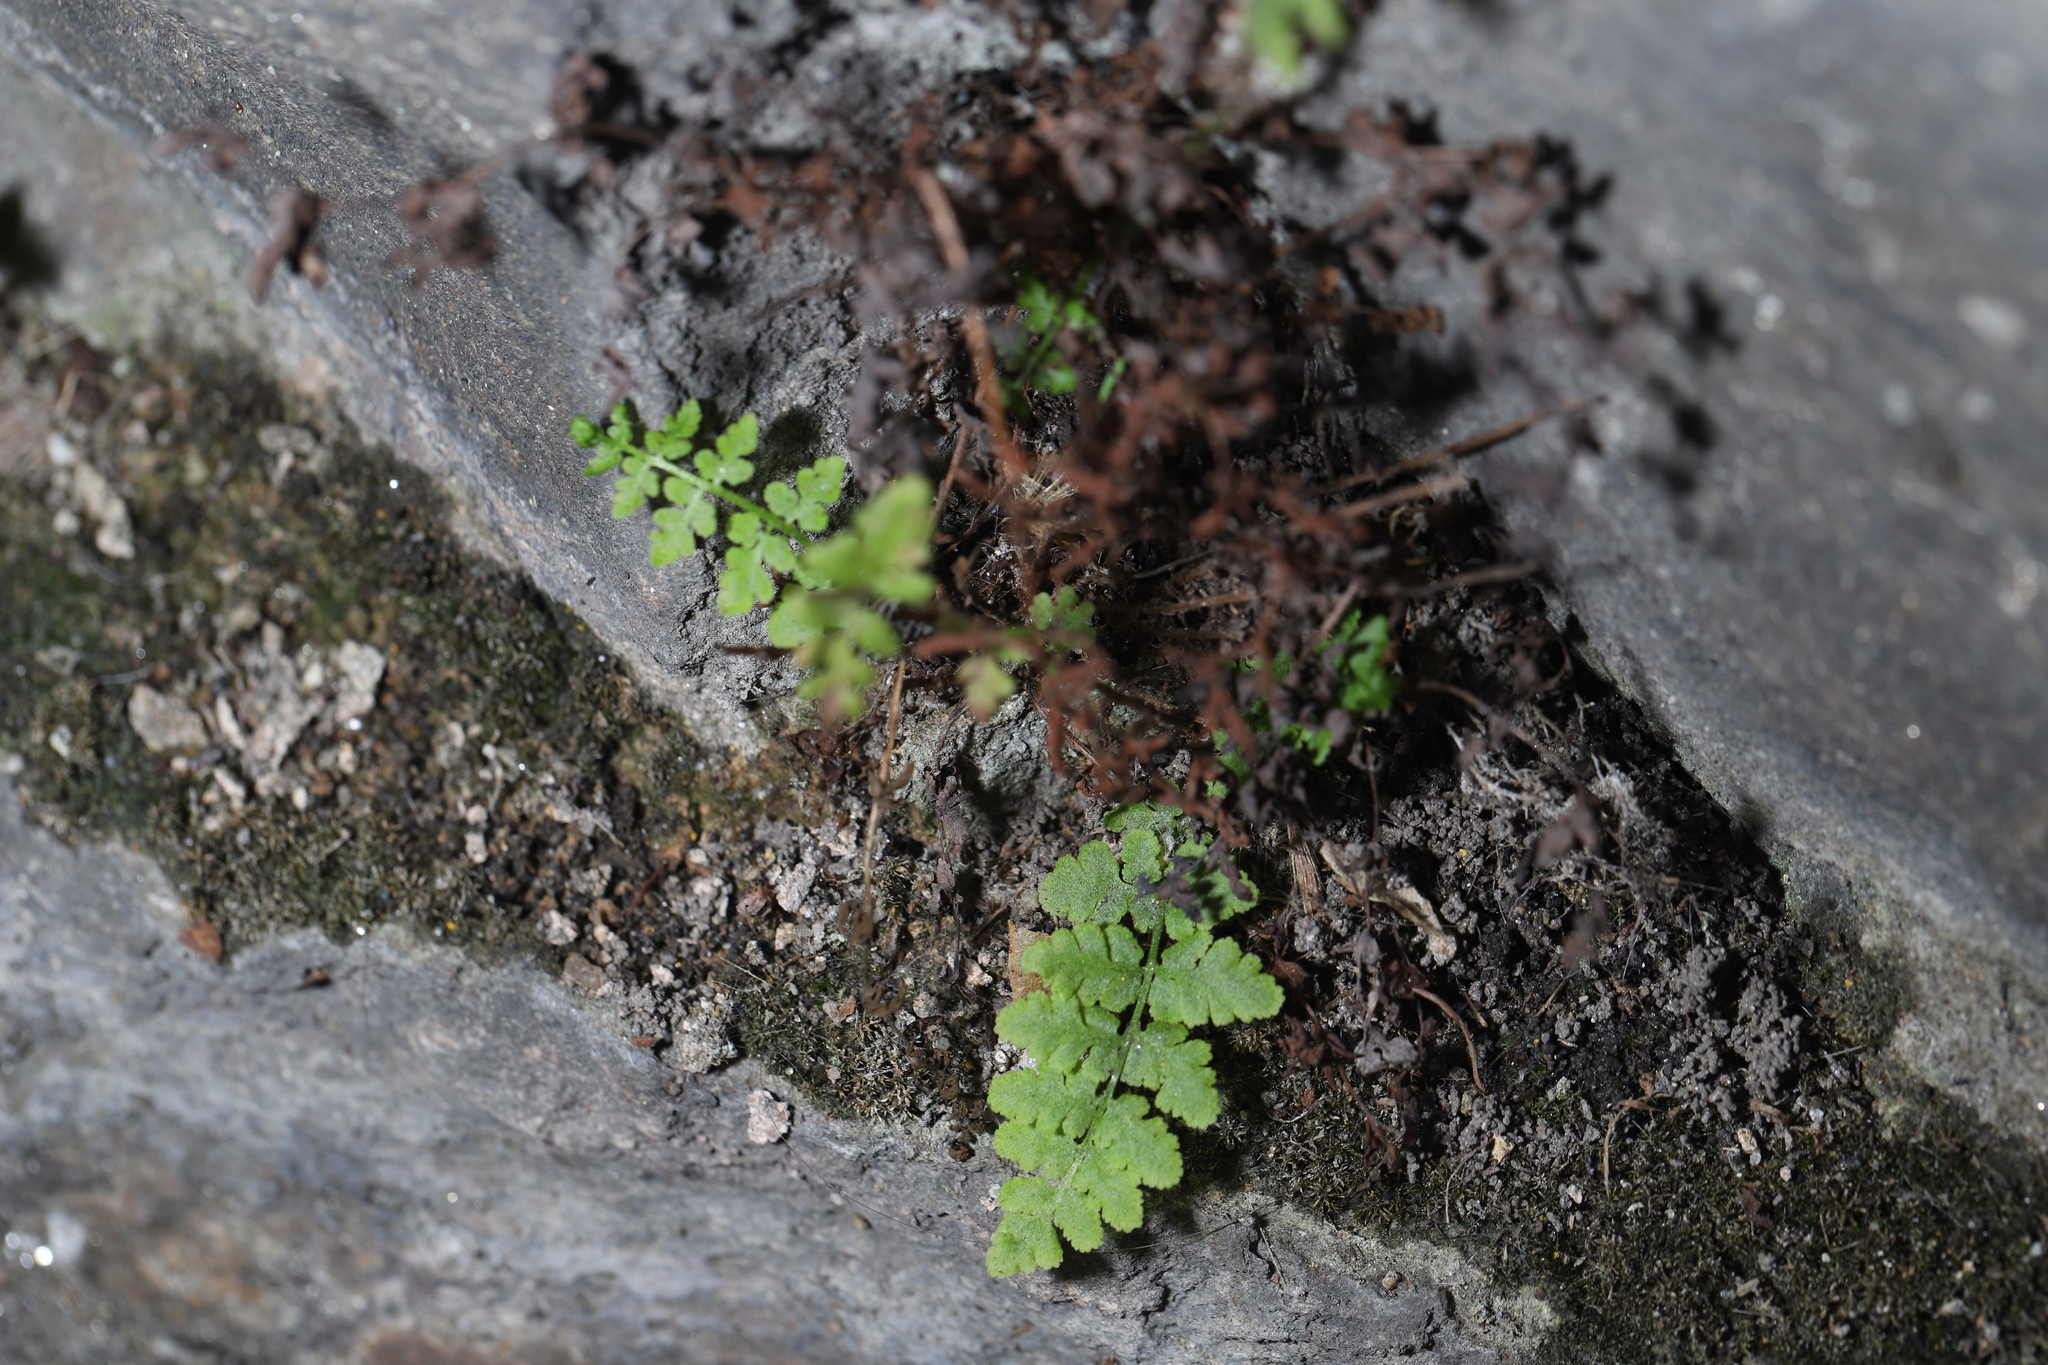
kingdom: Plantae
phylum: Tracheophyta
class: Polypodiopsida
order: Polypodiales
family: Woodsiaceae
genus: Physematium
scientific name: Physematium obtusum
